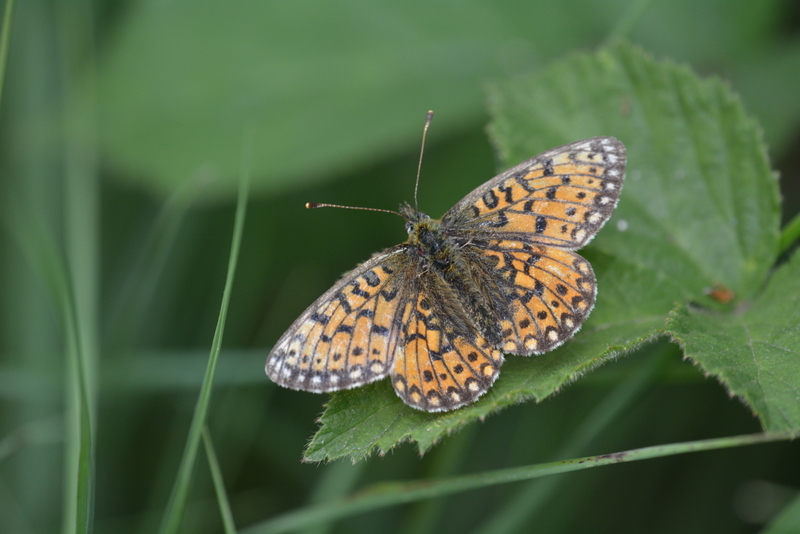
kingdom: Animalia
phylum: Arthropoda
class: Insecta
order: Lepidoptera
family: Nymphalidae
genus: Boloria
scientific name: Boloria selene
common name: Small pearl-bordered fritillary
